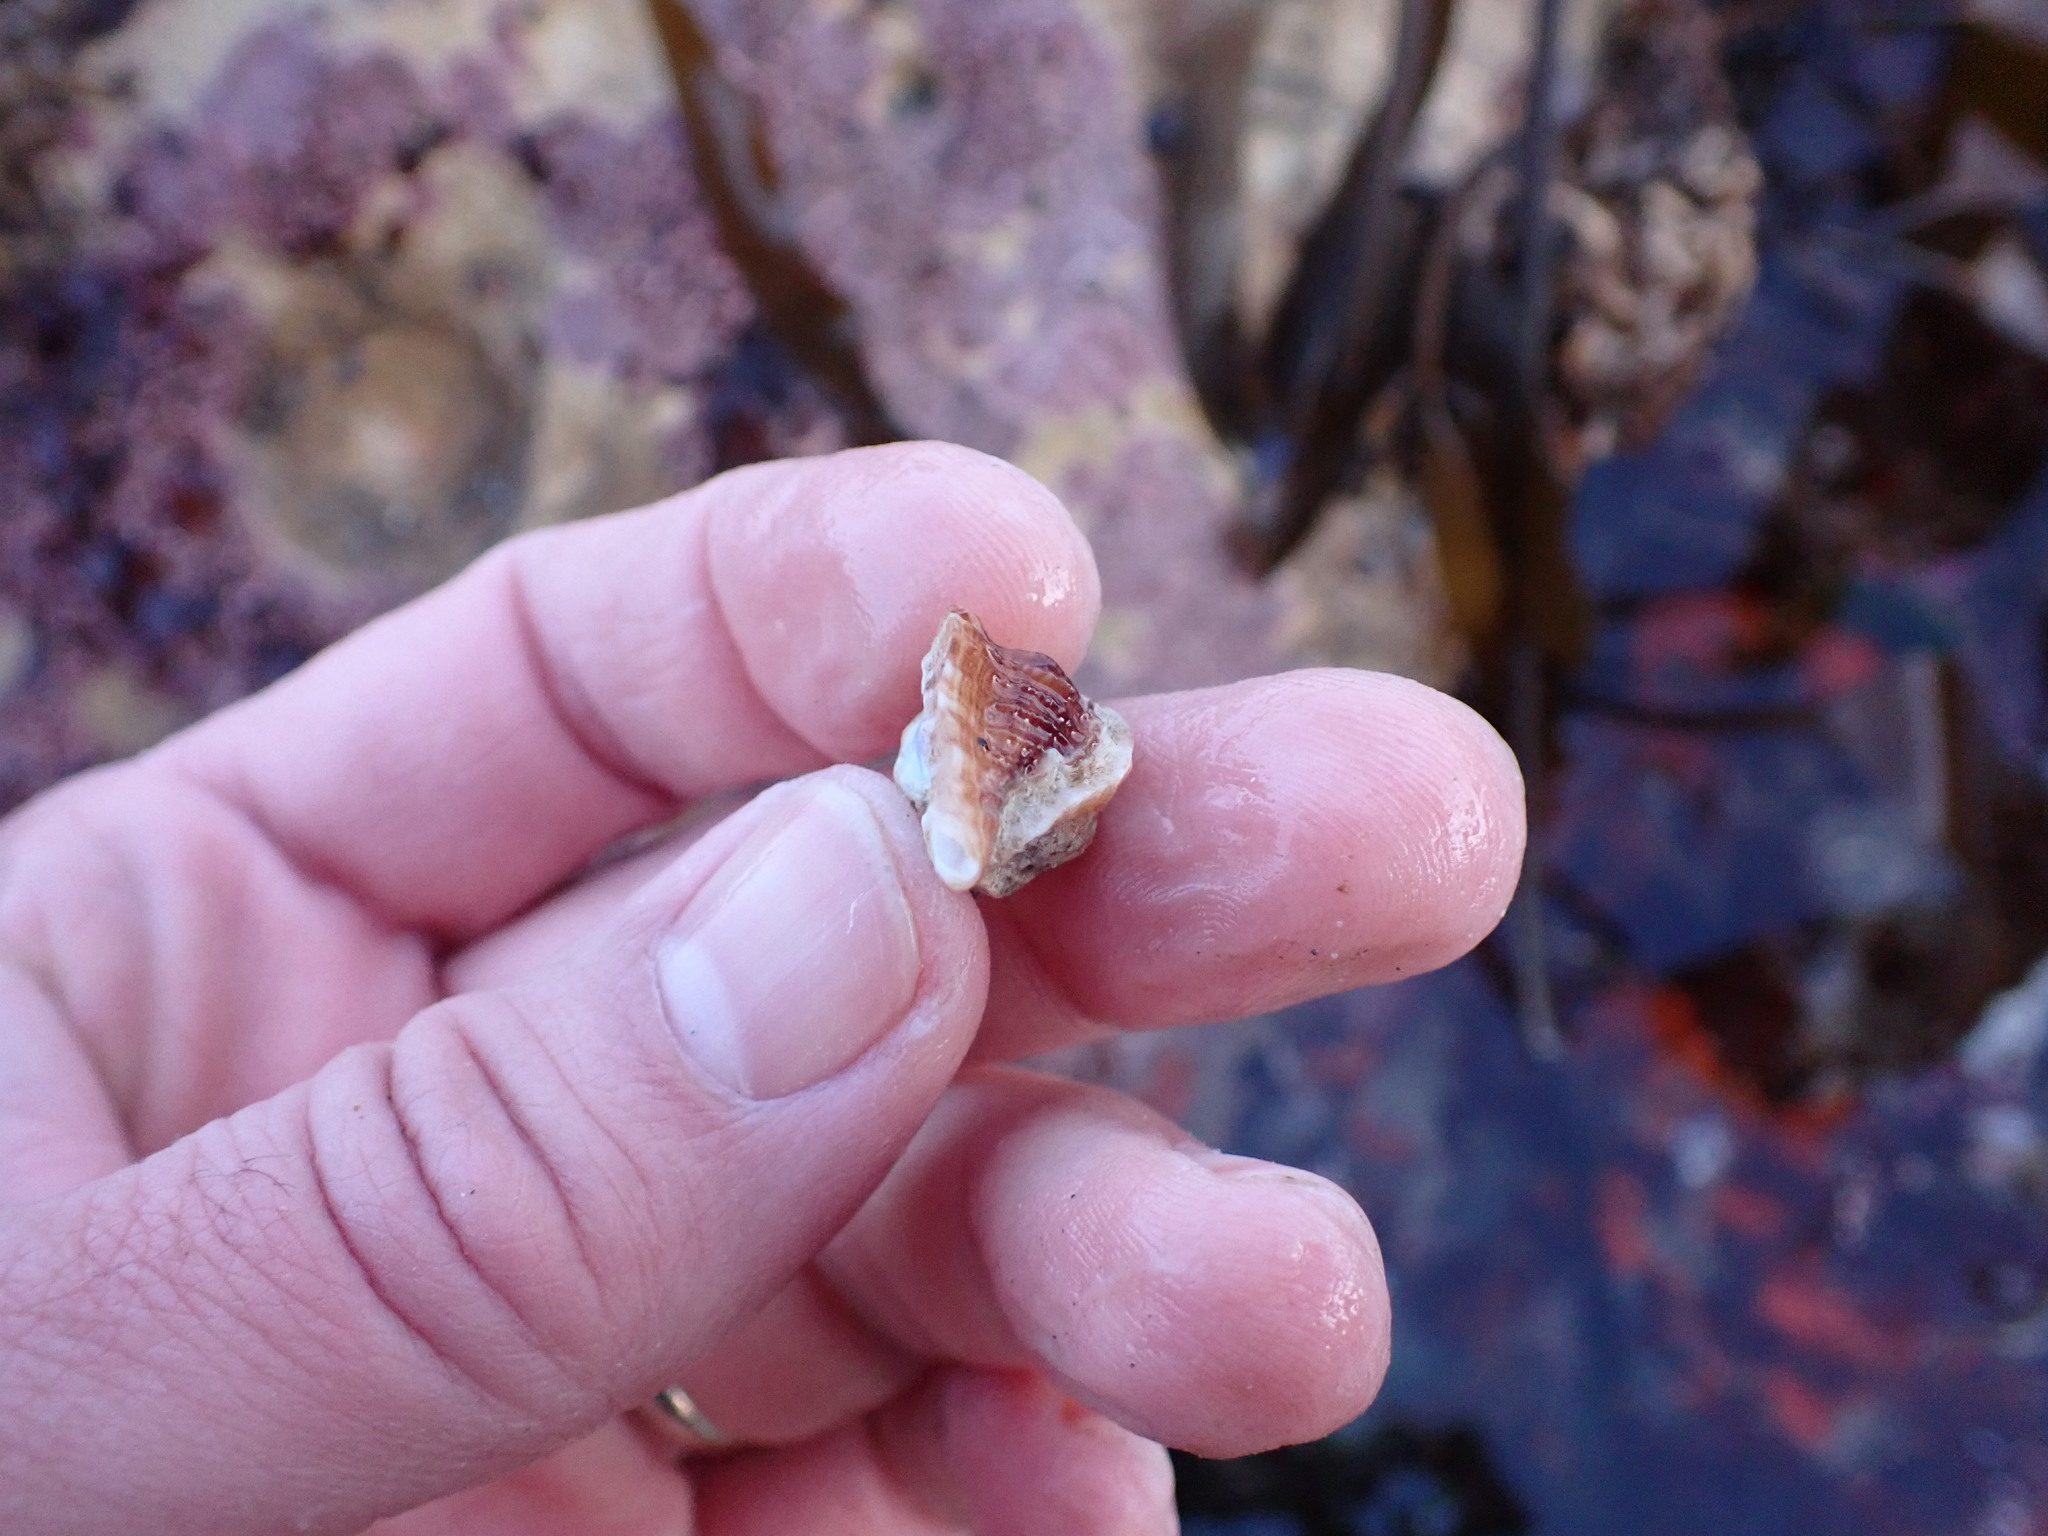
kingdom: Animalia
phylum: Mollusca
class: Gastropoda
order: Neogastropoda
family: Muricidae
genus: Ceratostoma
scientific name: Ceratostoma foliatum
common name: Foliate thorn purpura
